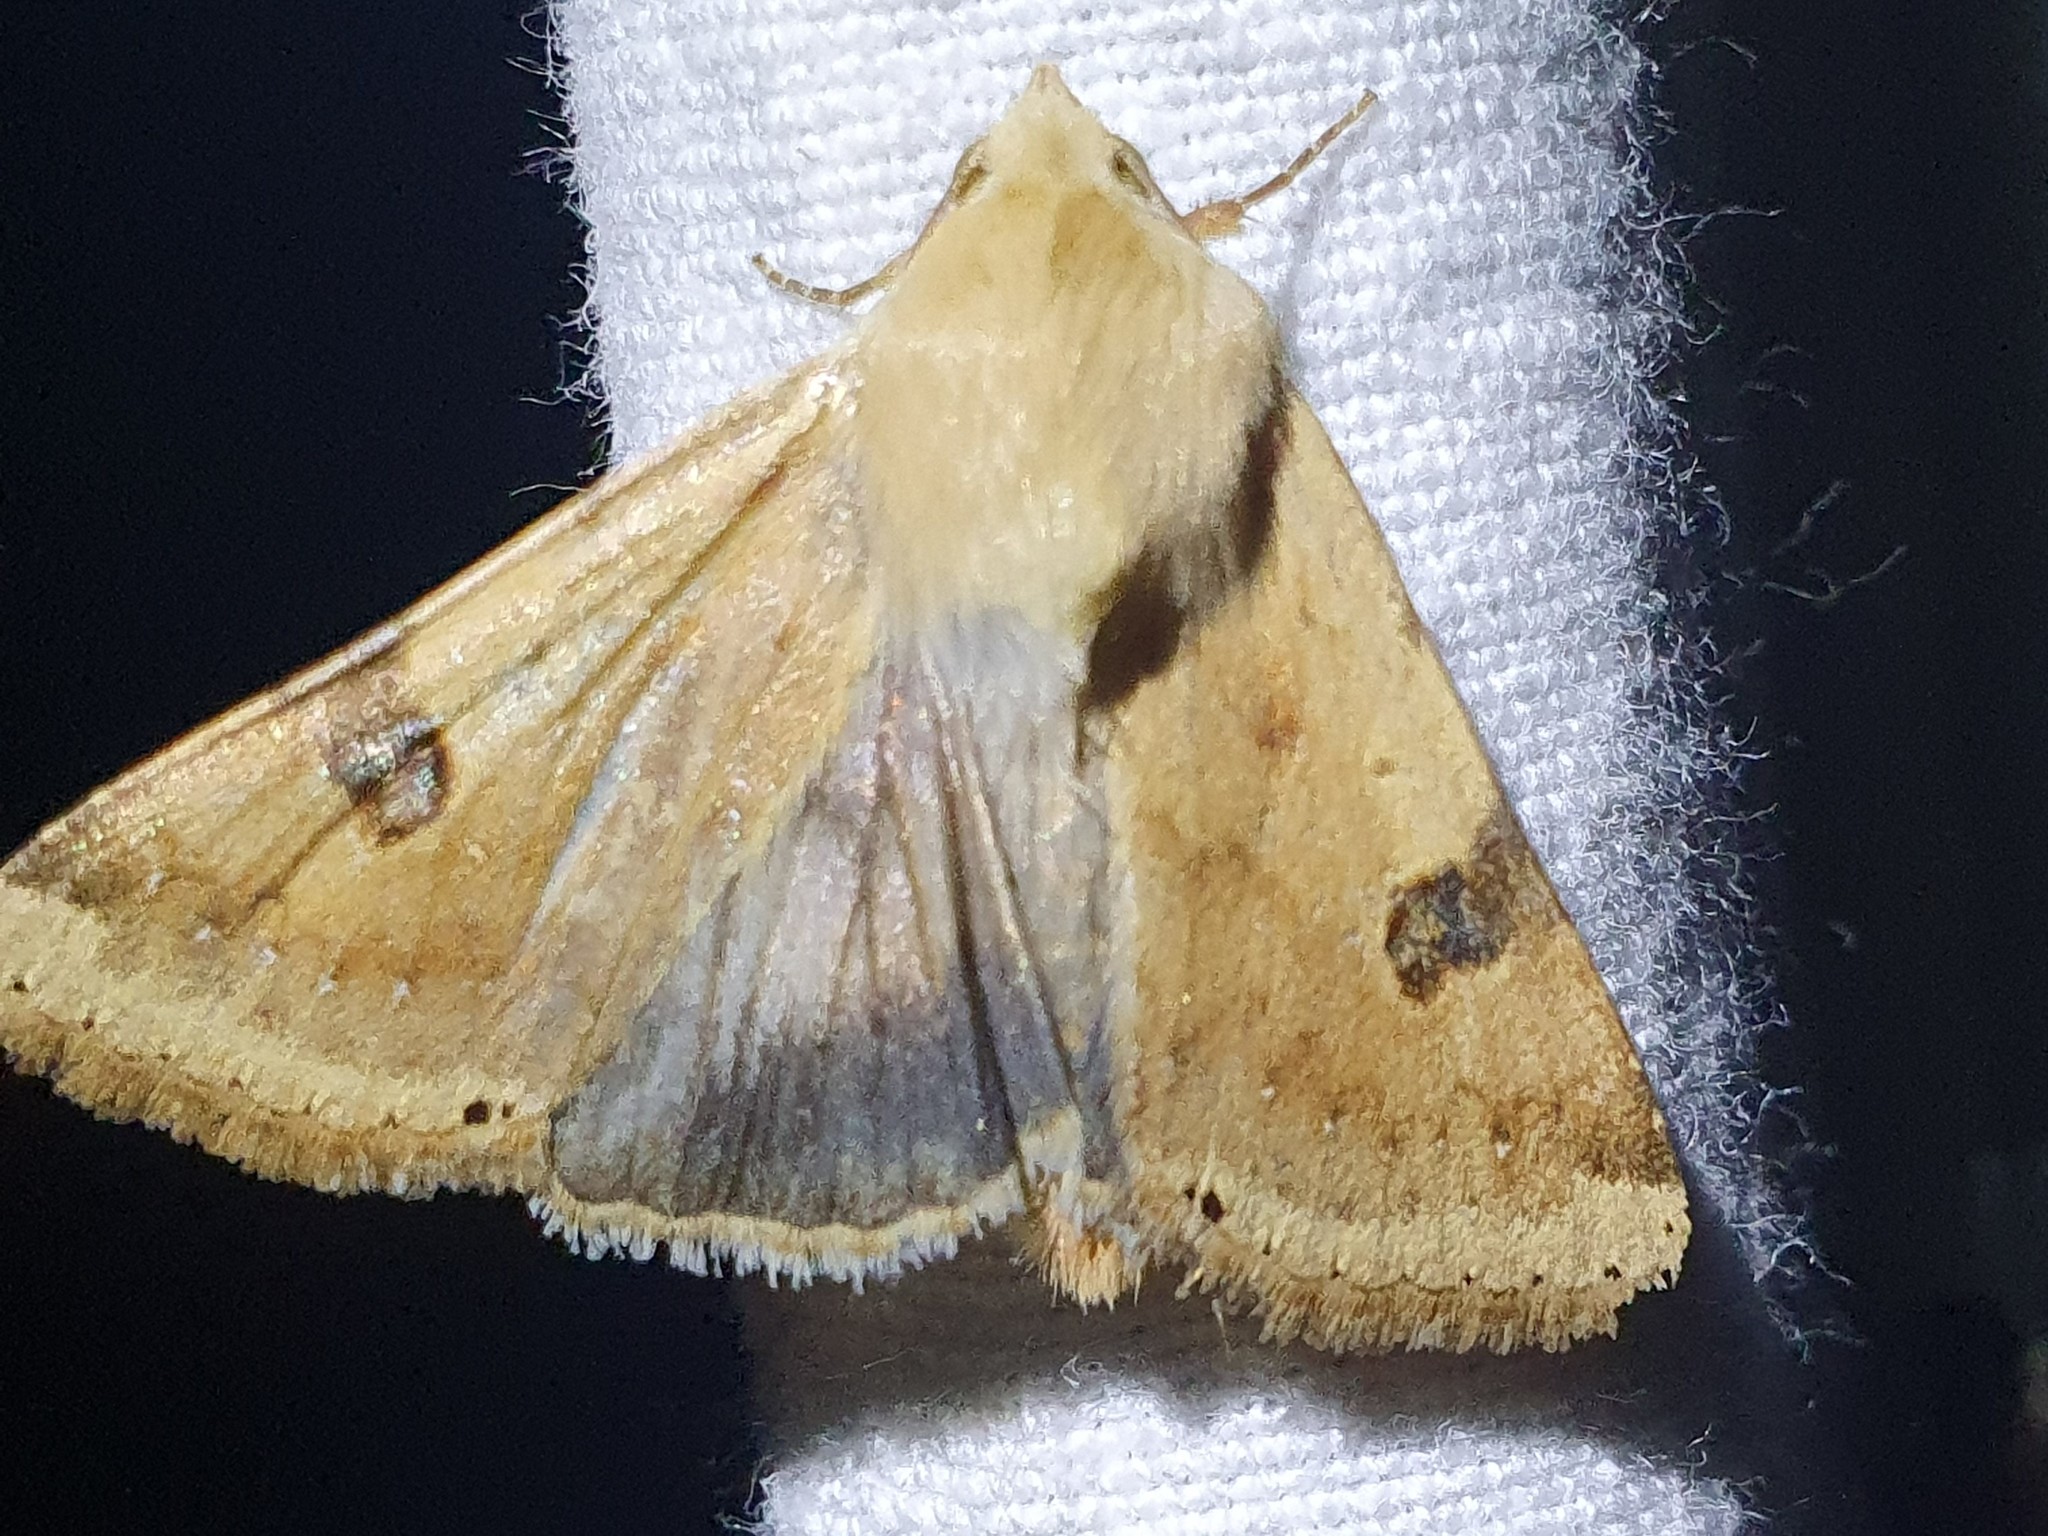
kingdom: Animalia
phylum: Arthropoda
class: Insecta
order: Lepidoptera
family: Noctuidae
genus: Heliothis
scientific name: Heliothis peltigera
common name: Bordered straw
